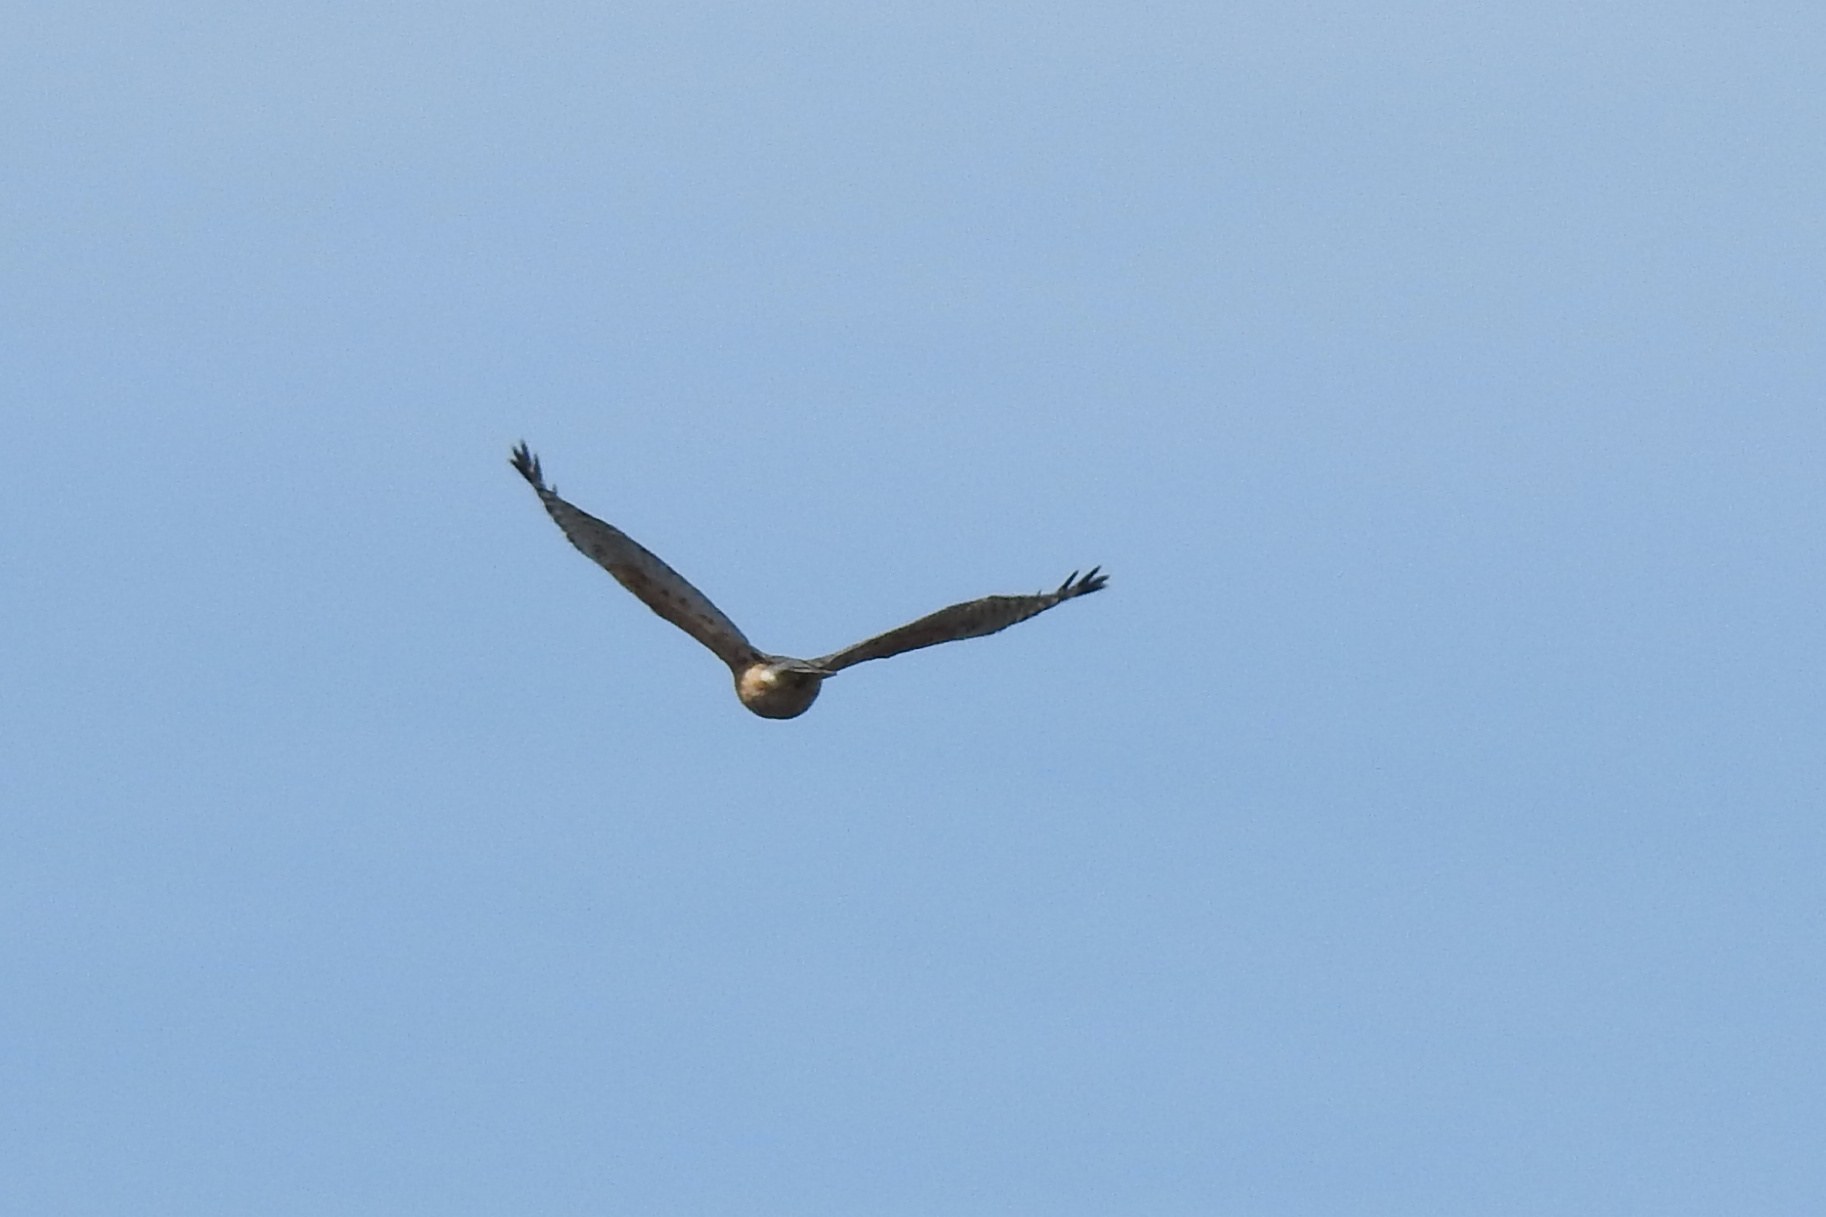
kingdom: Animalia
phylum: Chordata
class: Aves
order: Accipitriformes
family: Accipitridae
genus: Buteo
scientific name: Buteo lineatus
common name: Red-shouldered hawk
